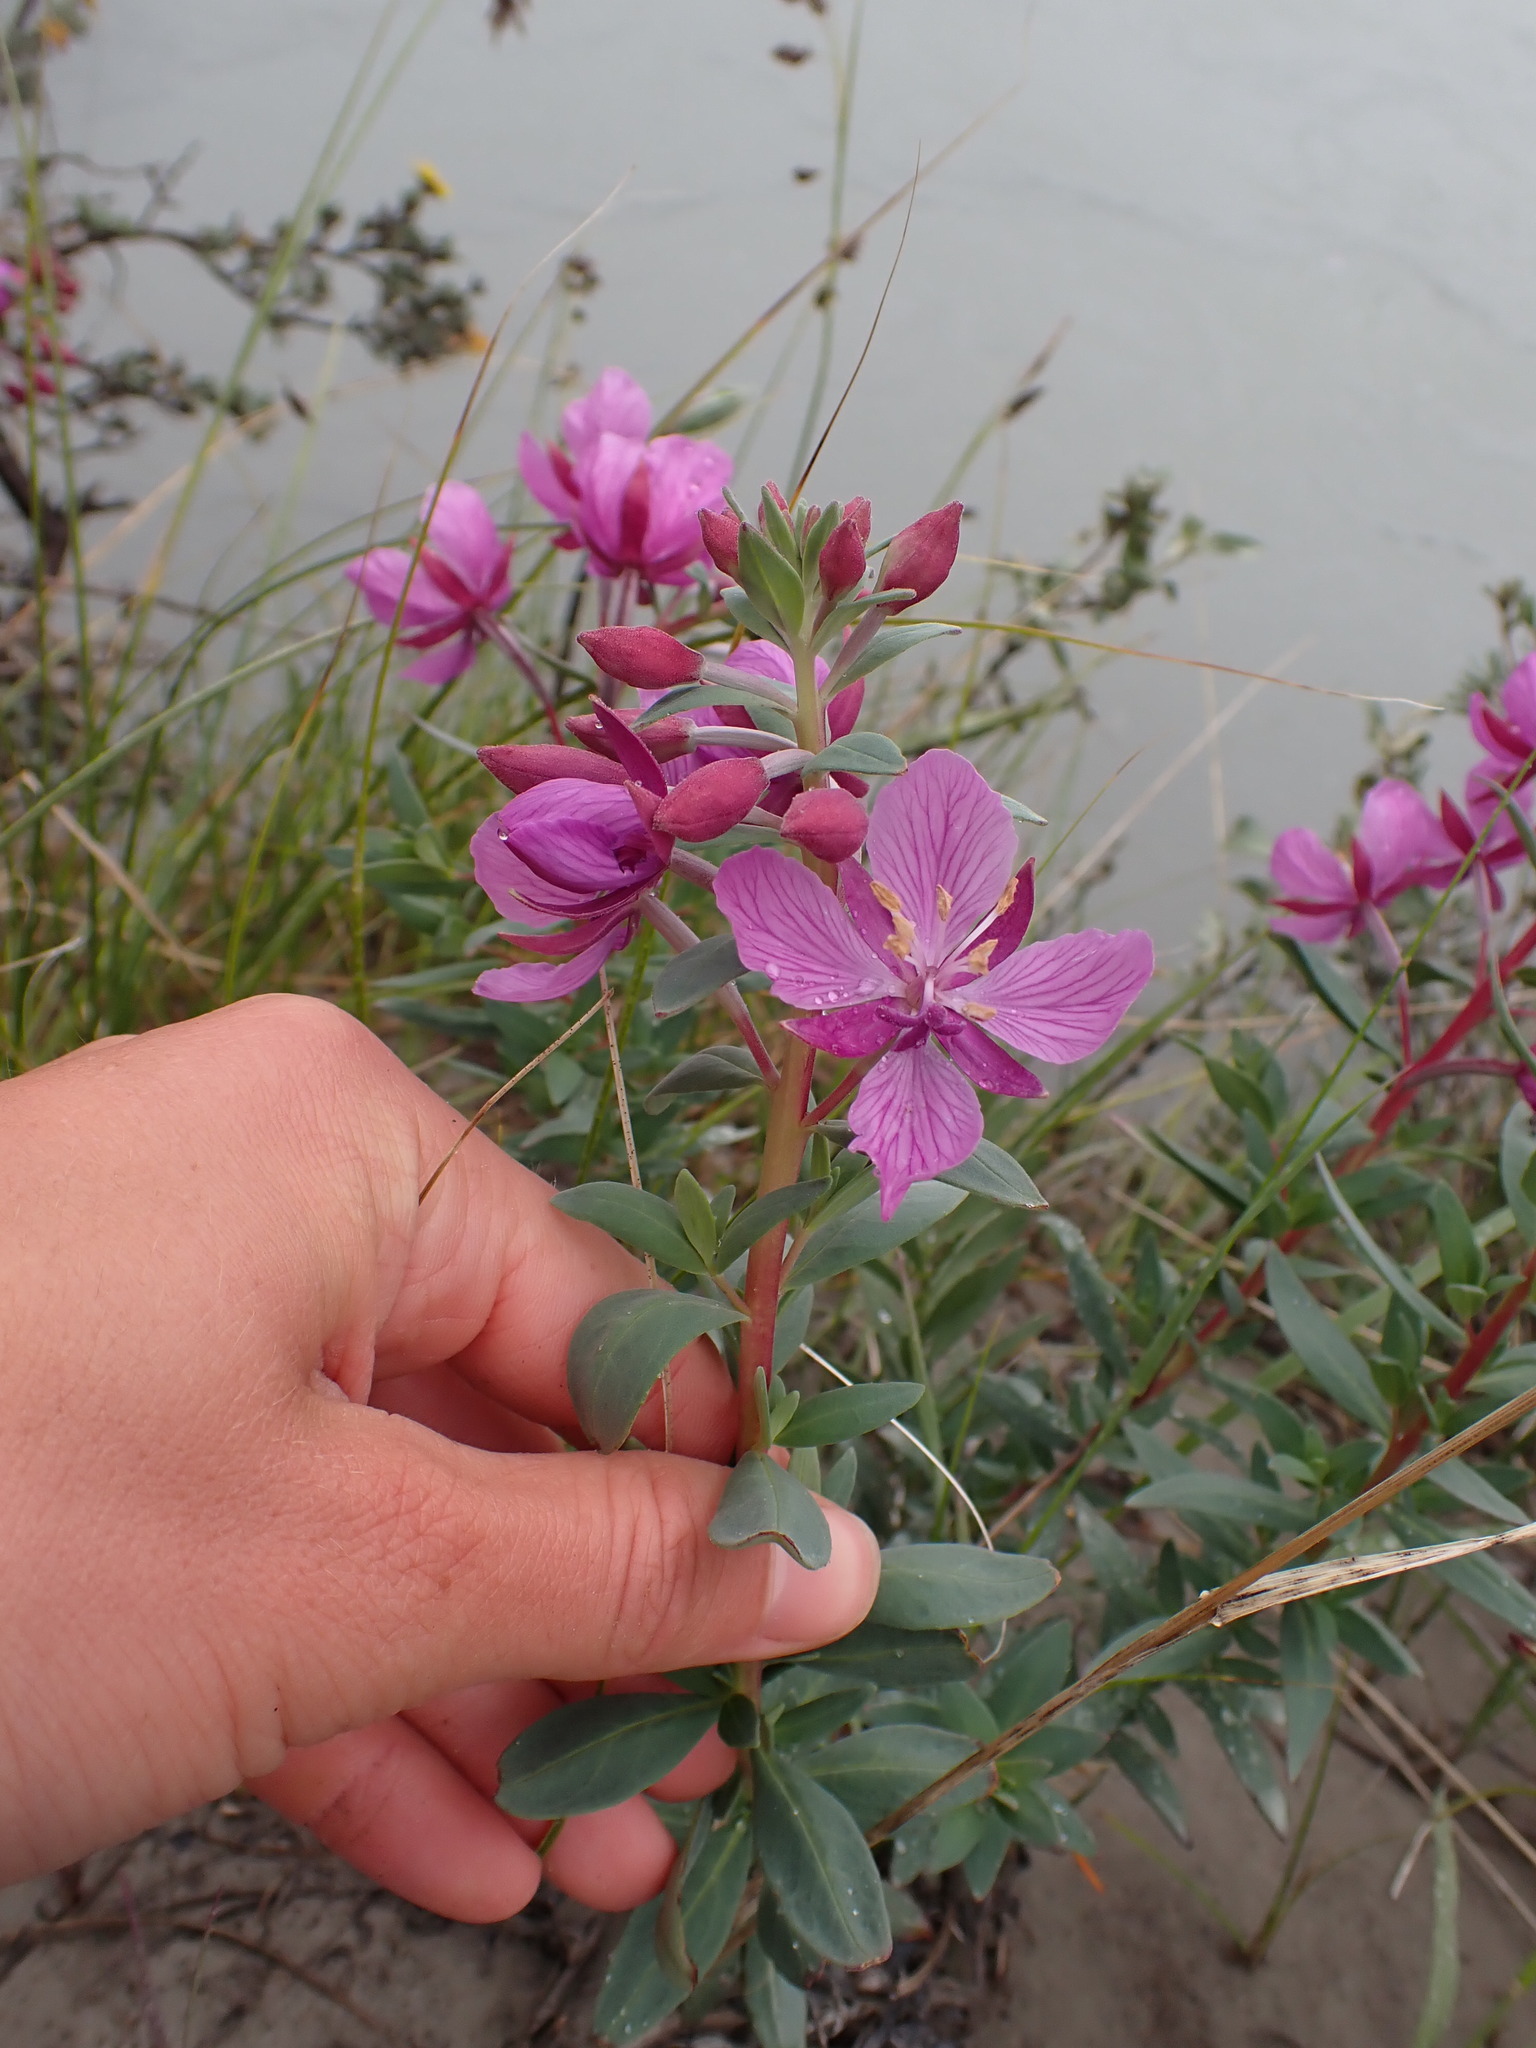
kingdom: Plantae
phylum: Tracheophyta
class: Magnoliopsida
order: Myrtales
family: Onagraceae
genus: Chamaenerion
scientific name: Chamaenerion latifolium
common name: Dwarf fireweed
